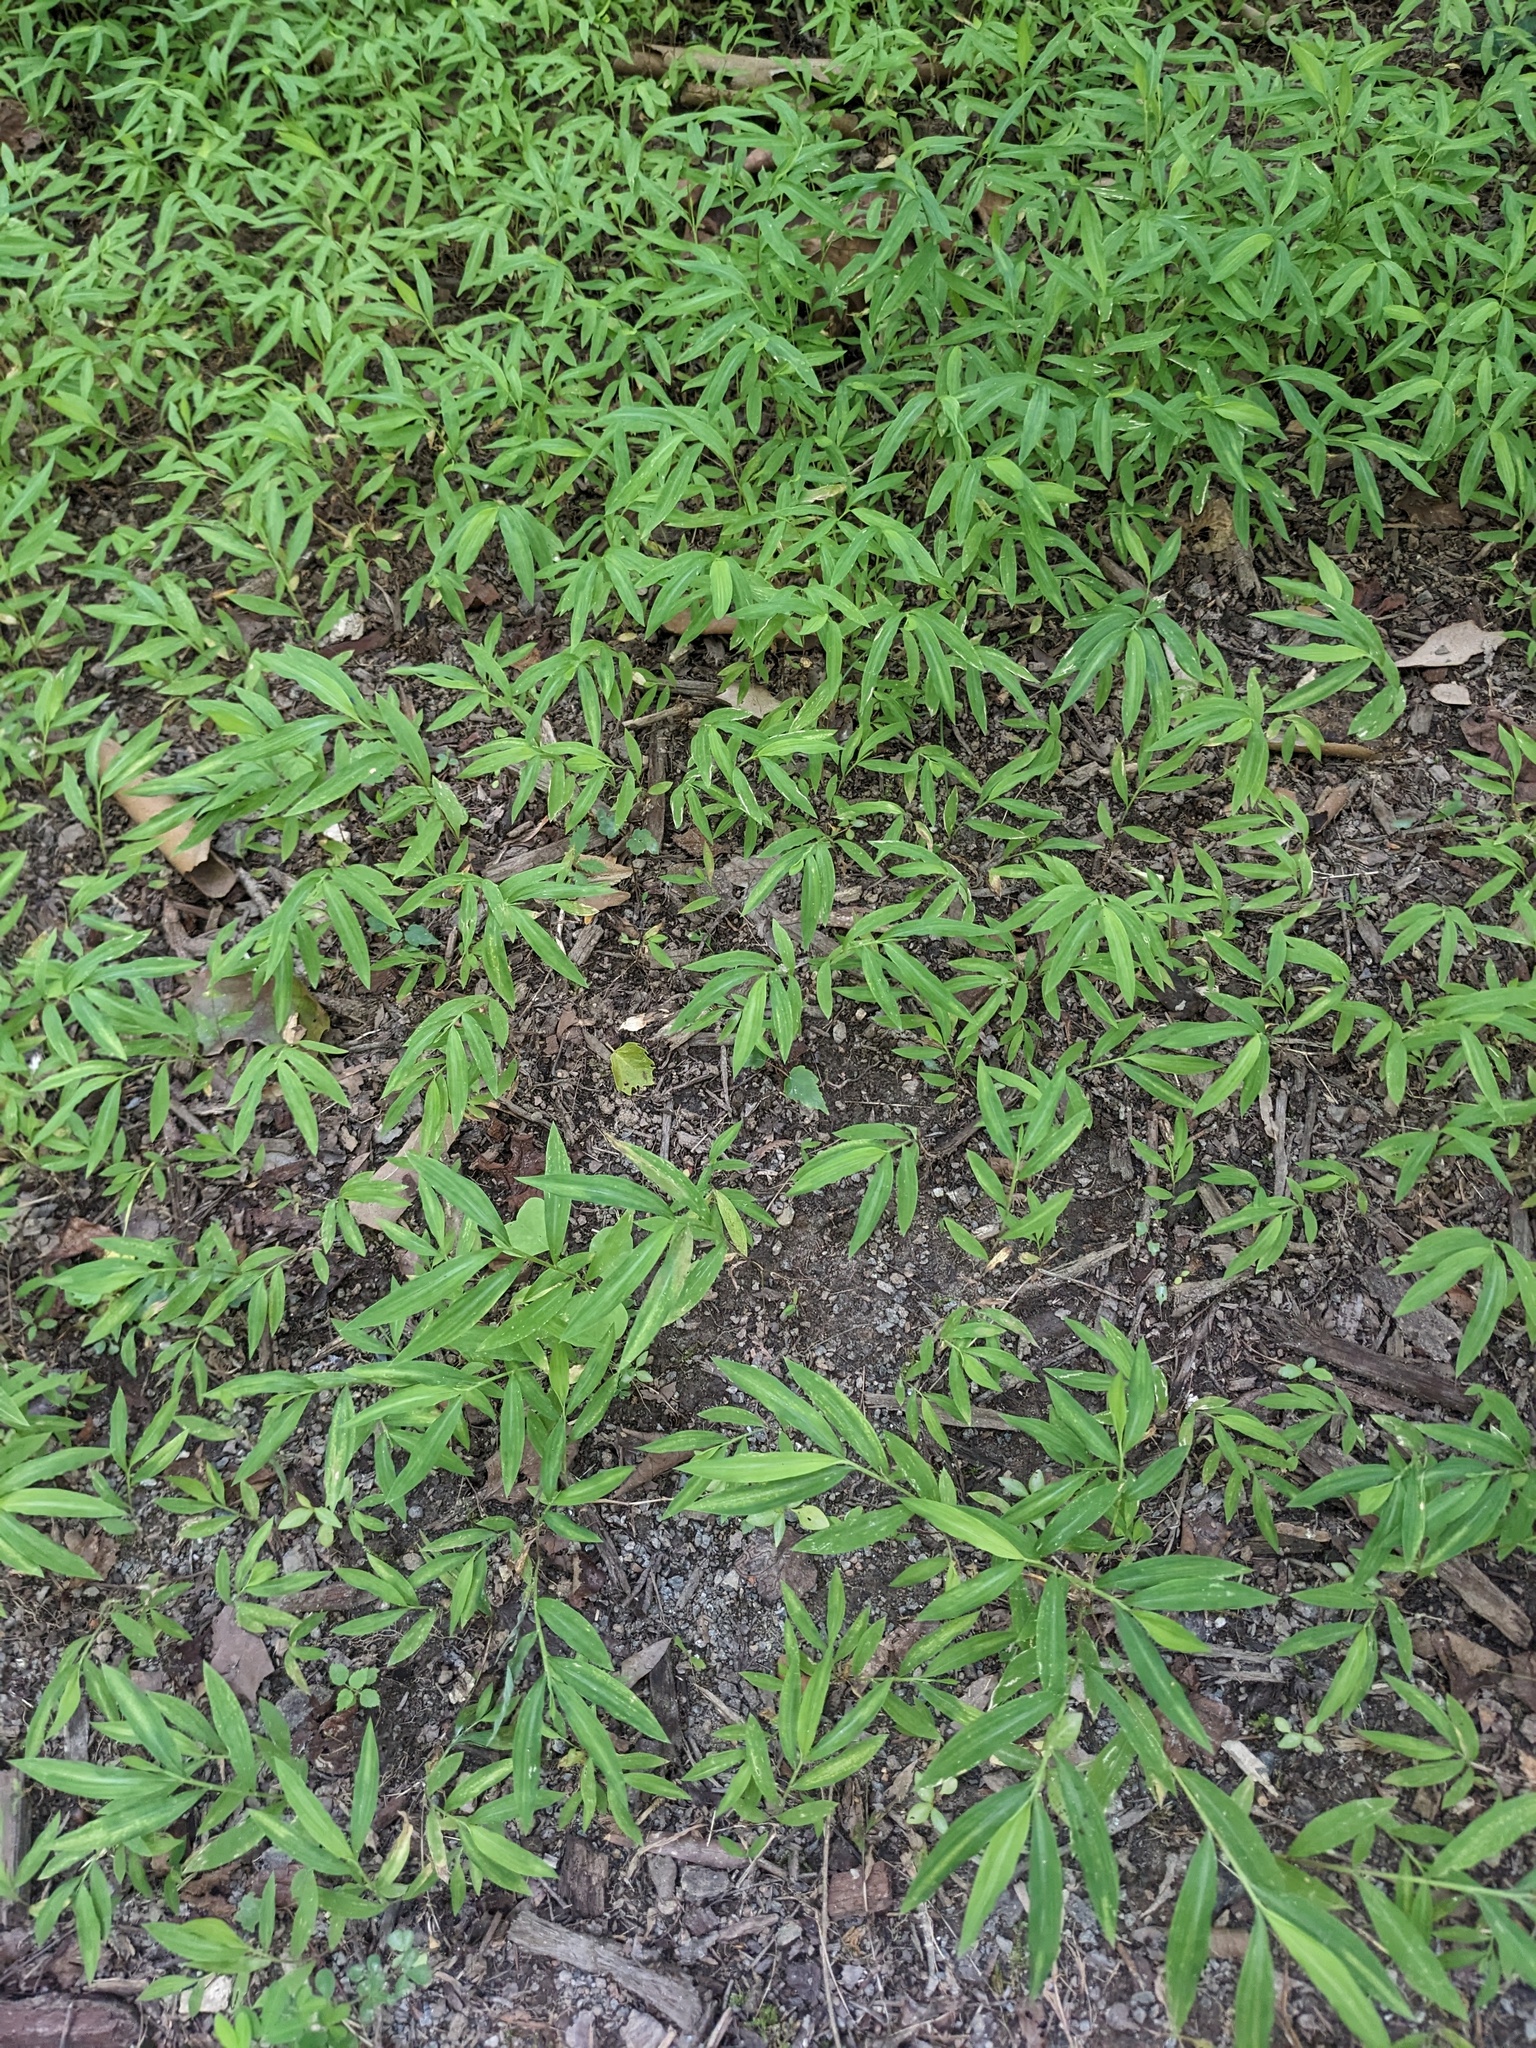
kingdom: Plantae
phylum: Tracheophyta
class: Liliopsida
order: Poales
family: Poaceae
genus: Microstegium
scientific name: Microstegium vimineum
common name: Japanese stiltgrass
